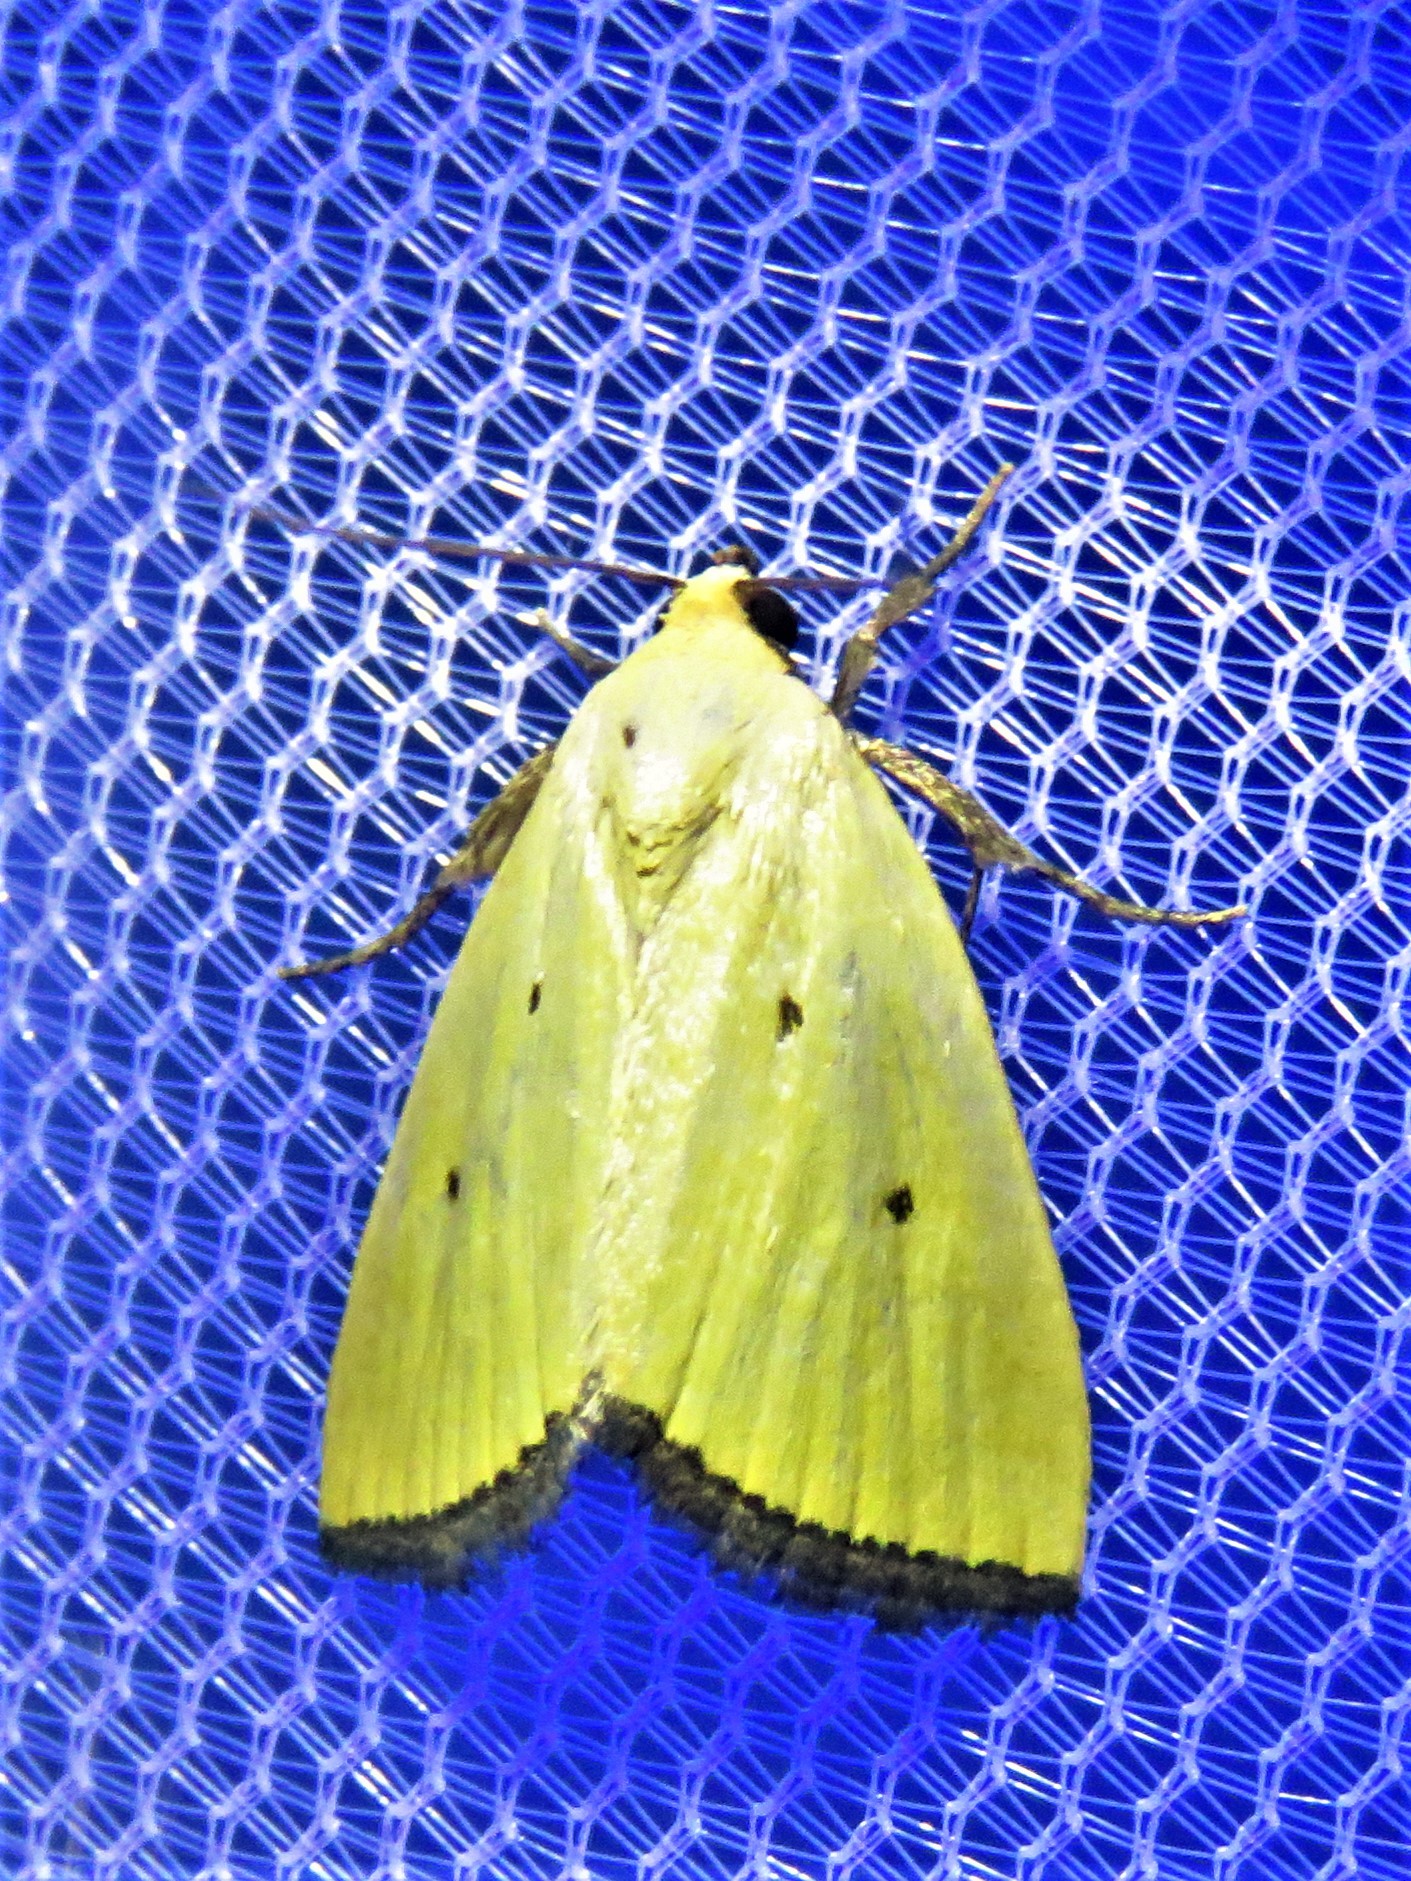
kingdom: Animalia
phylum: Arthropoda
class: Insecta
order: Lepidoptera
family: Noctuidae
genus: Marimatha
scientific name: Marimatha nigrofimbria
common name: Black-bordered lemon moth
